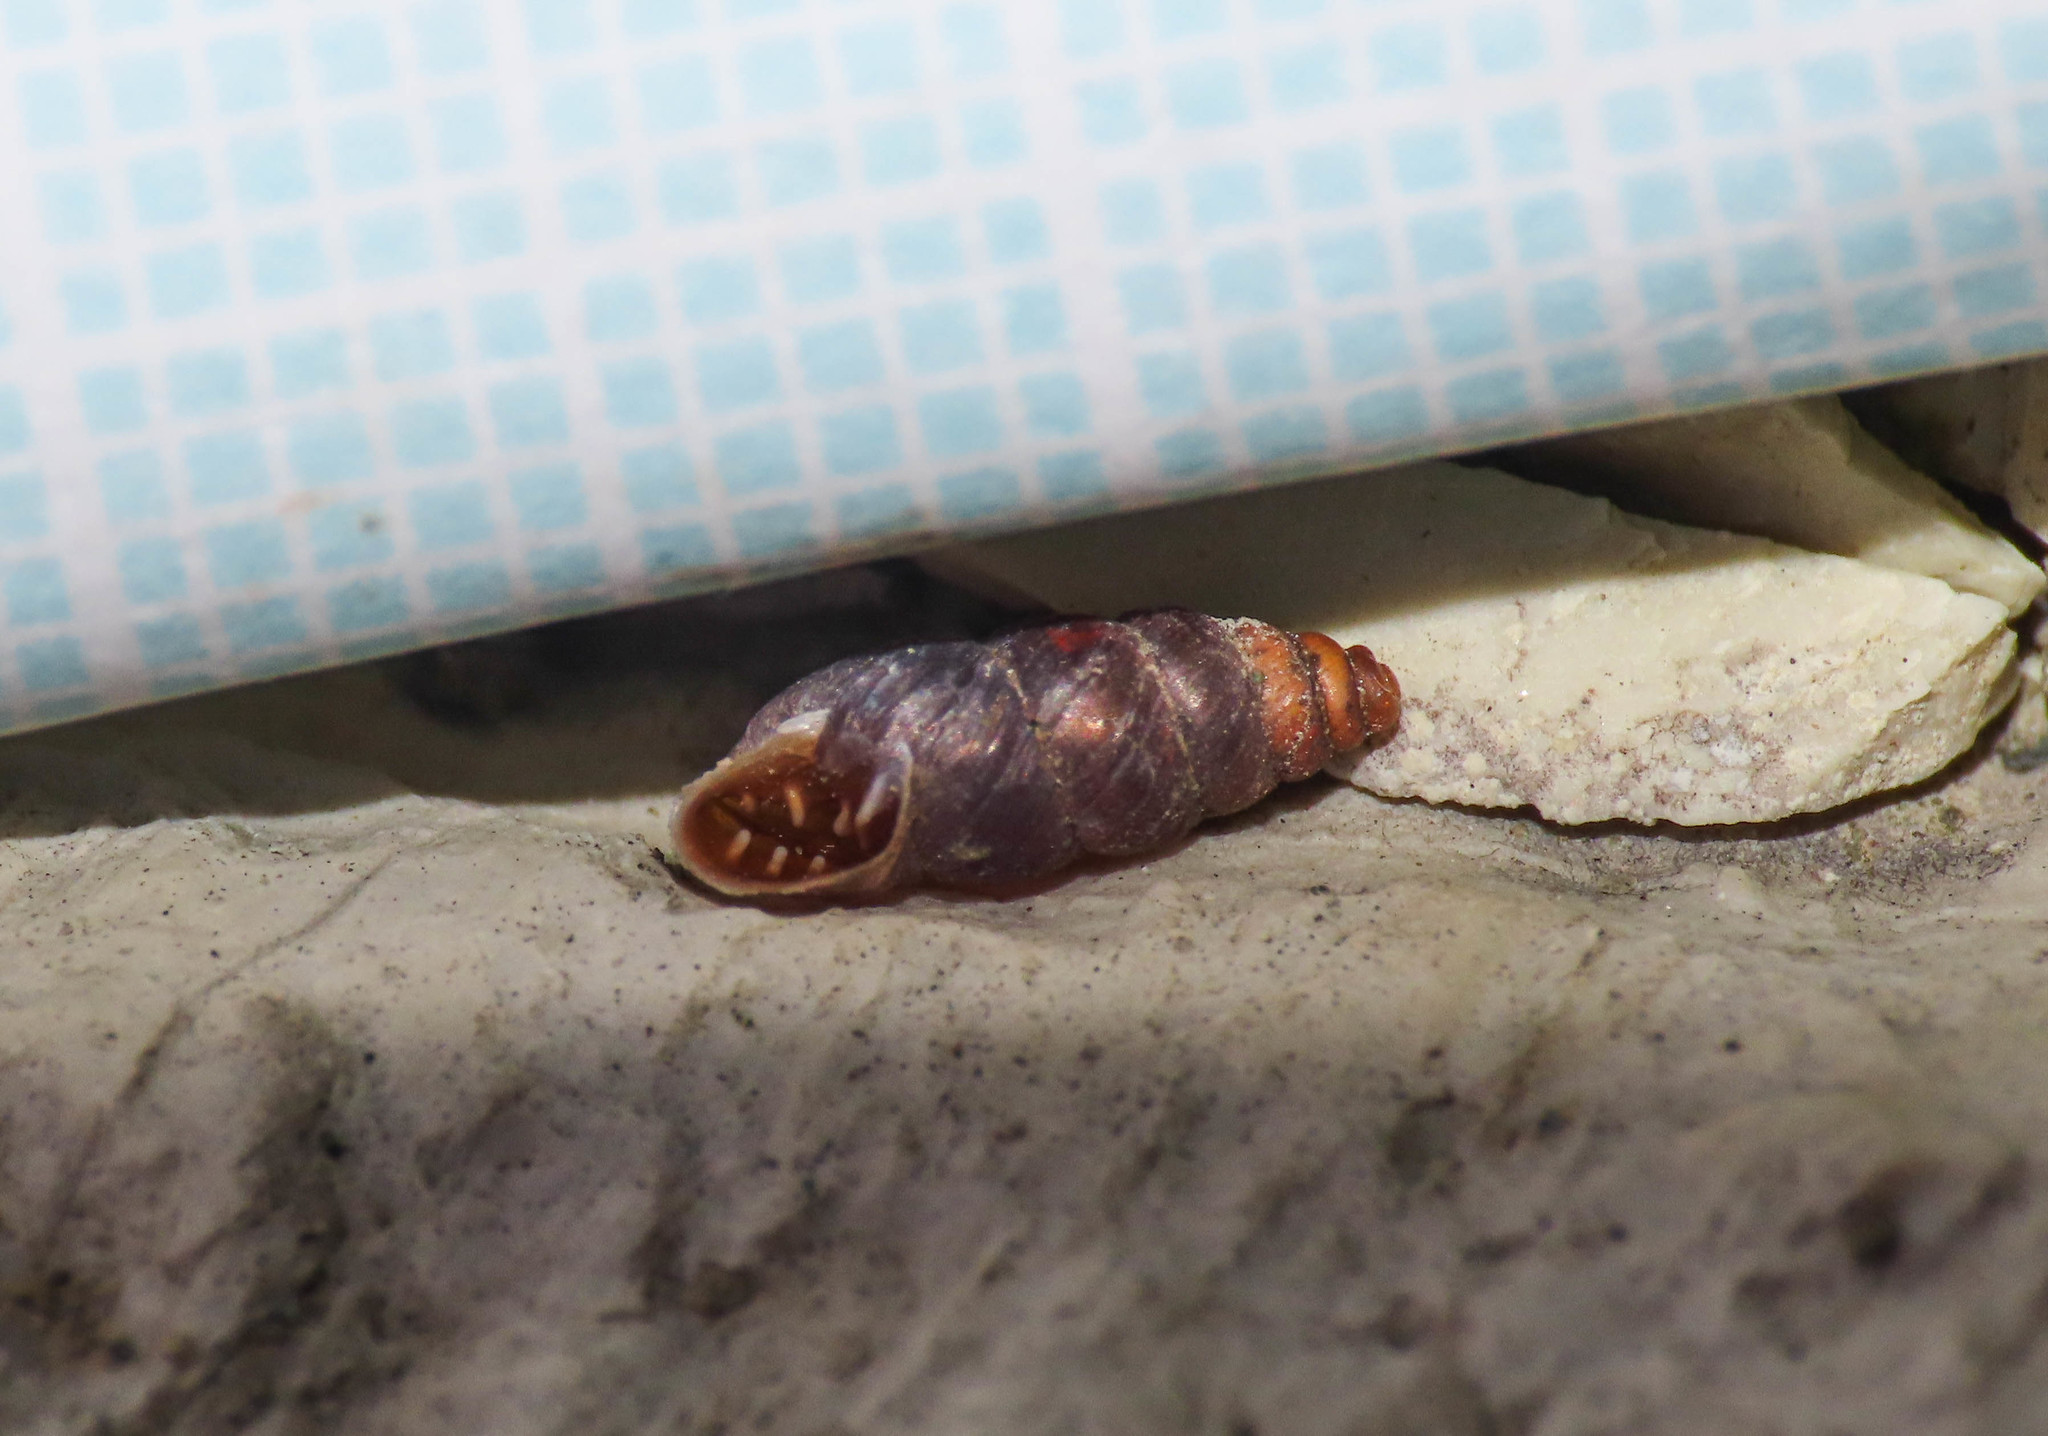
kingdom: Animalia
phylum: Mollusca
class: Gastropoda
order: Stylommatophora
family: Chondrinidae
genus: Chondrina
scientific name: Chondrina avenacea
